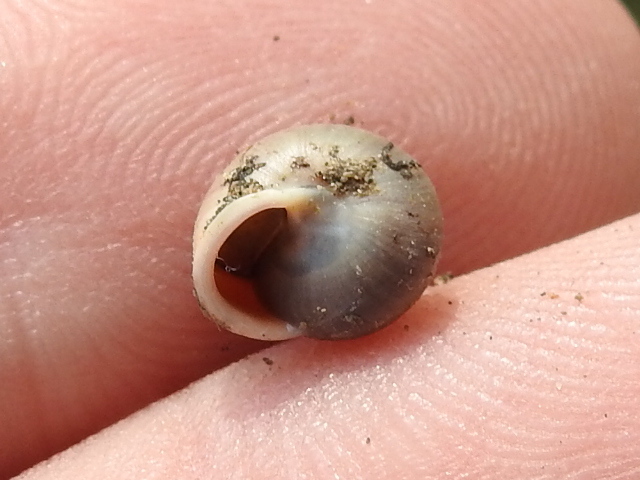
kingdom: Animalia
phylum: Mollusca
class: Gastropoda
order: Cycloneritida
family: Helicinidae
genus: Helicina
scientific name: Helicina orbiculata
